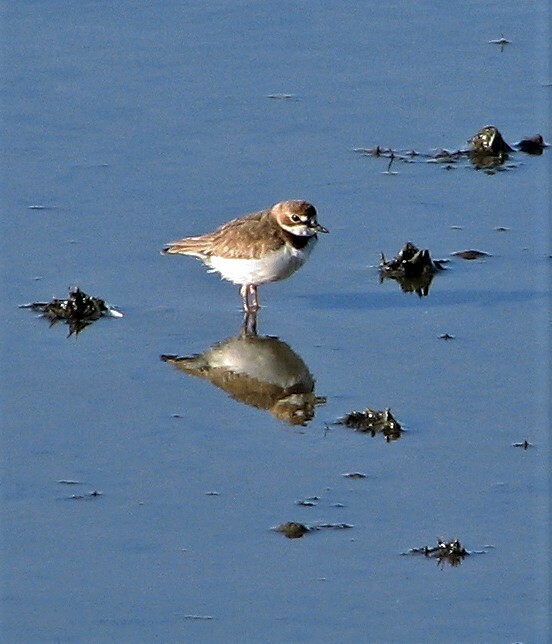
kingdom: Animalia
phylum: Chordata
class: Aves
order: Charadriiformes
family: Charadriidae
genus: Anarhynchus
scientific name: Anarhynchus
